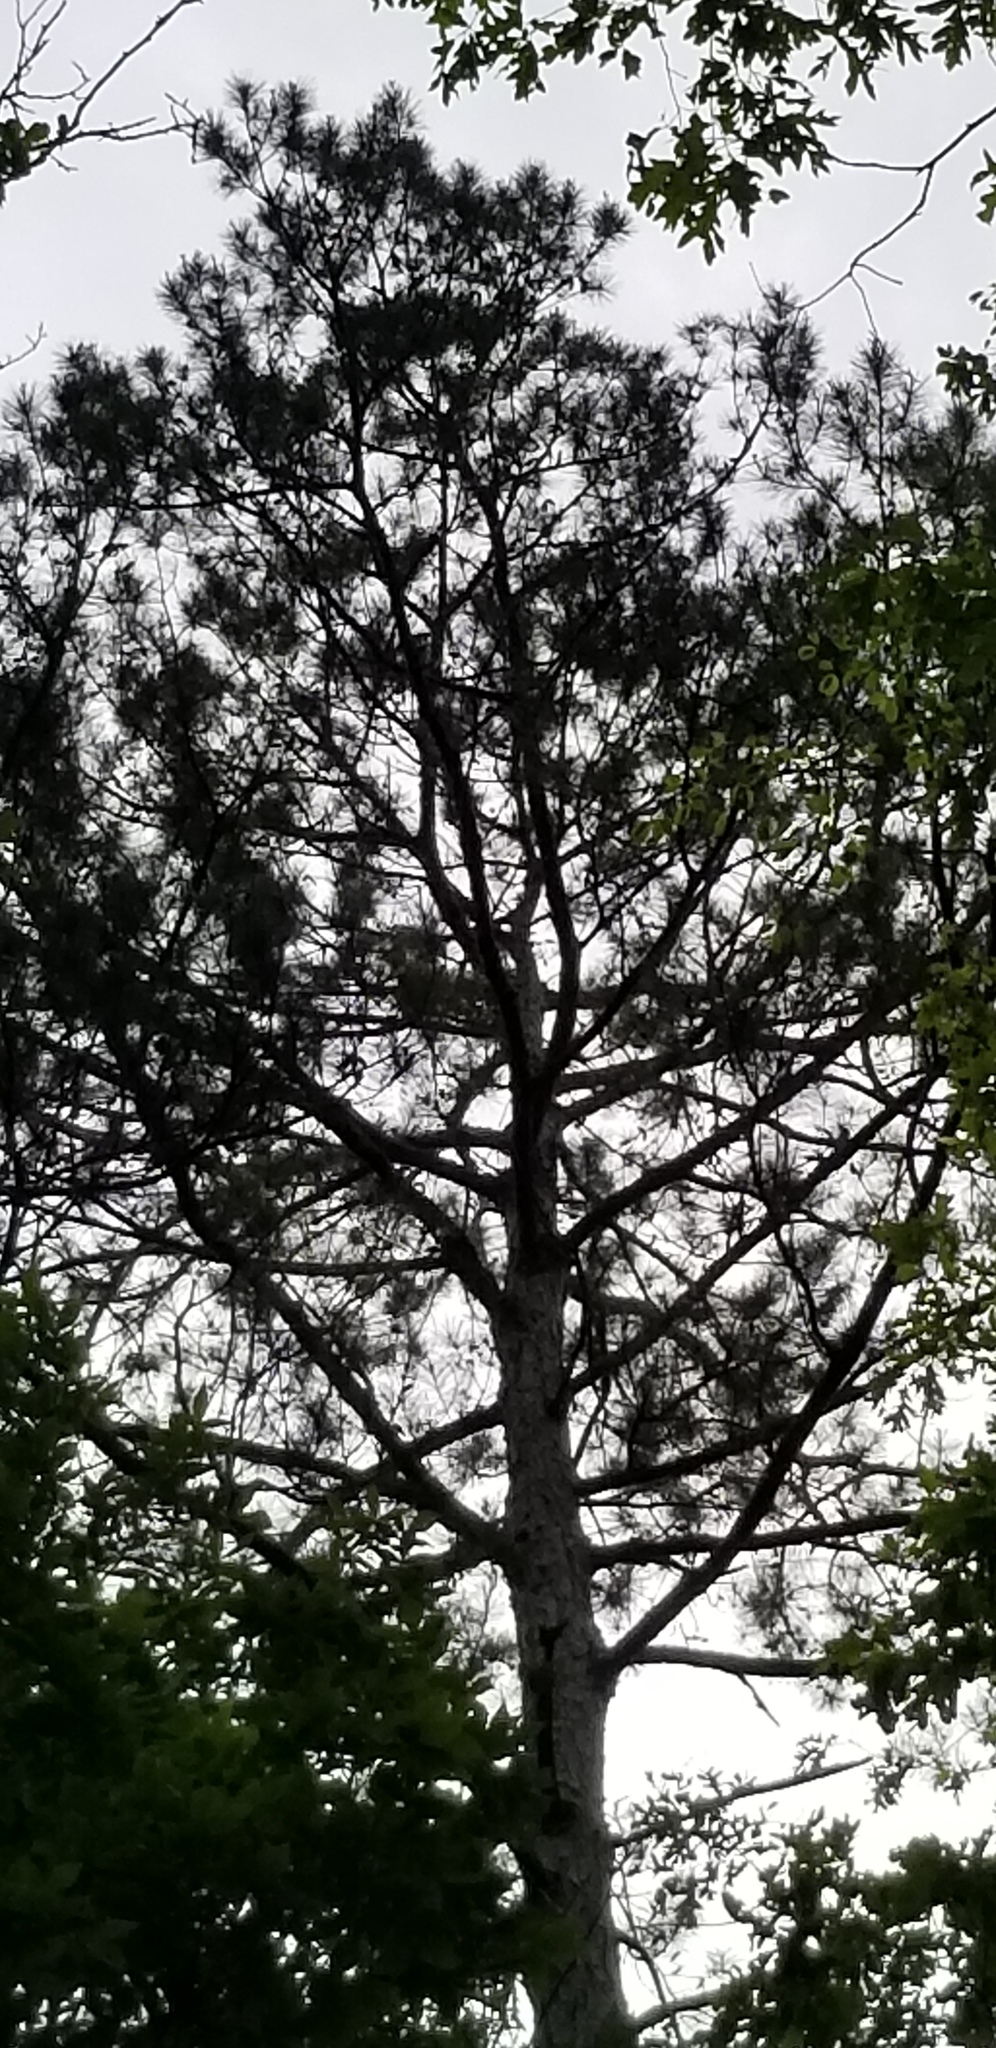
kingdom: Plantae
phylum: Tracheophyta
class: Pinopsida
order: Pinales
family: Pinaceae
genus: Pinus
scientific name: Pinus echinata
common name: Shortleaf pine
